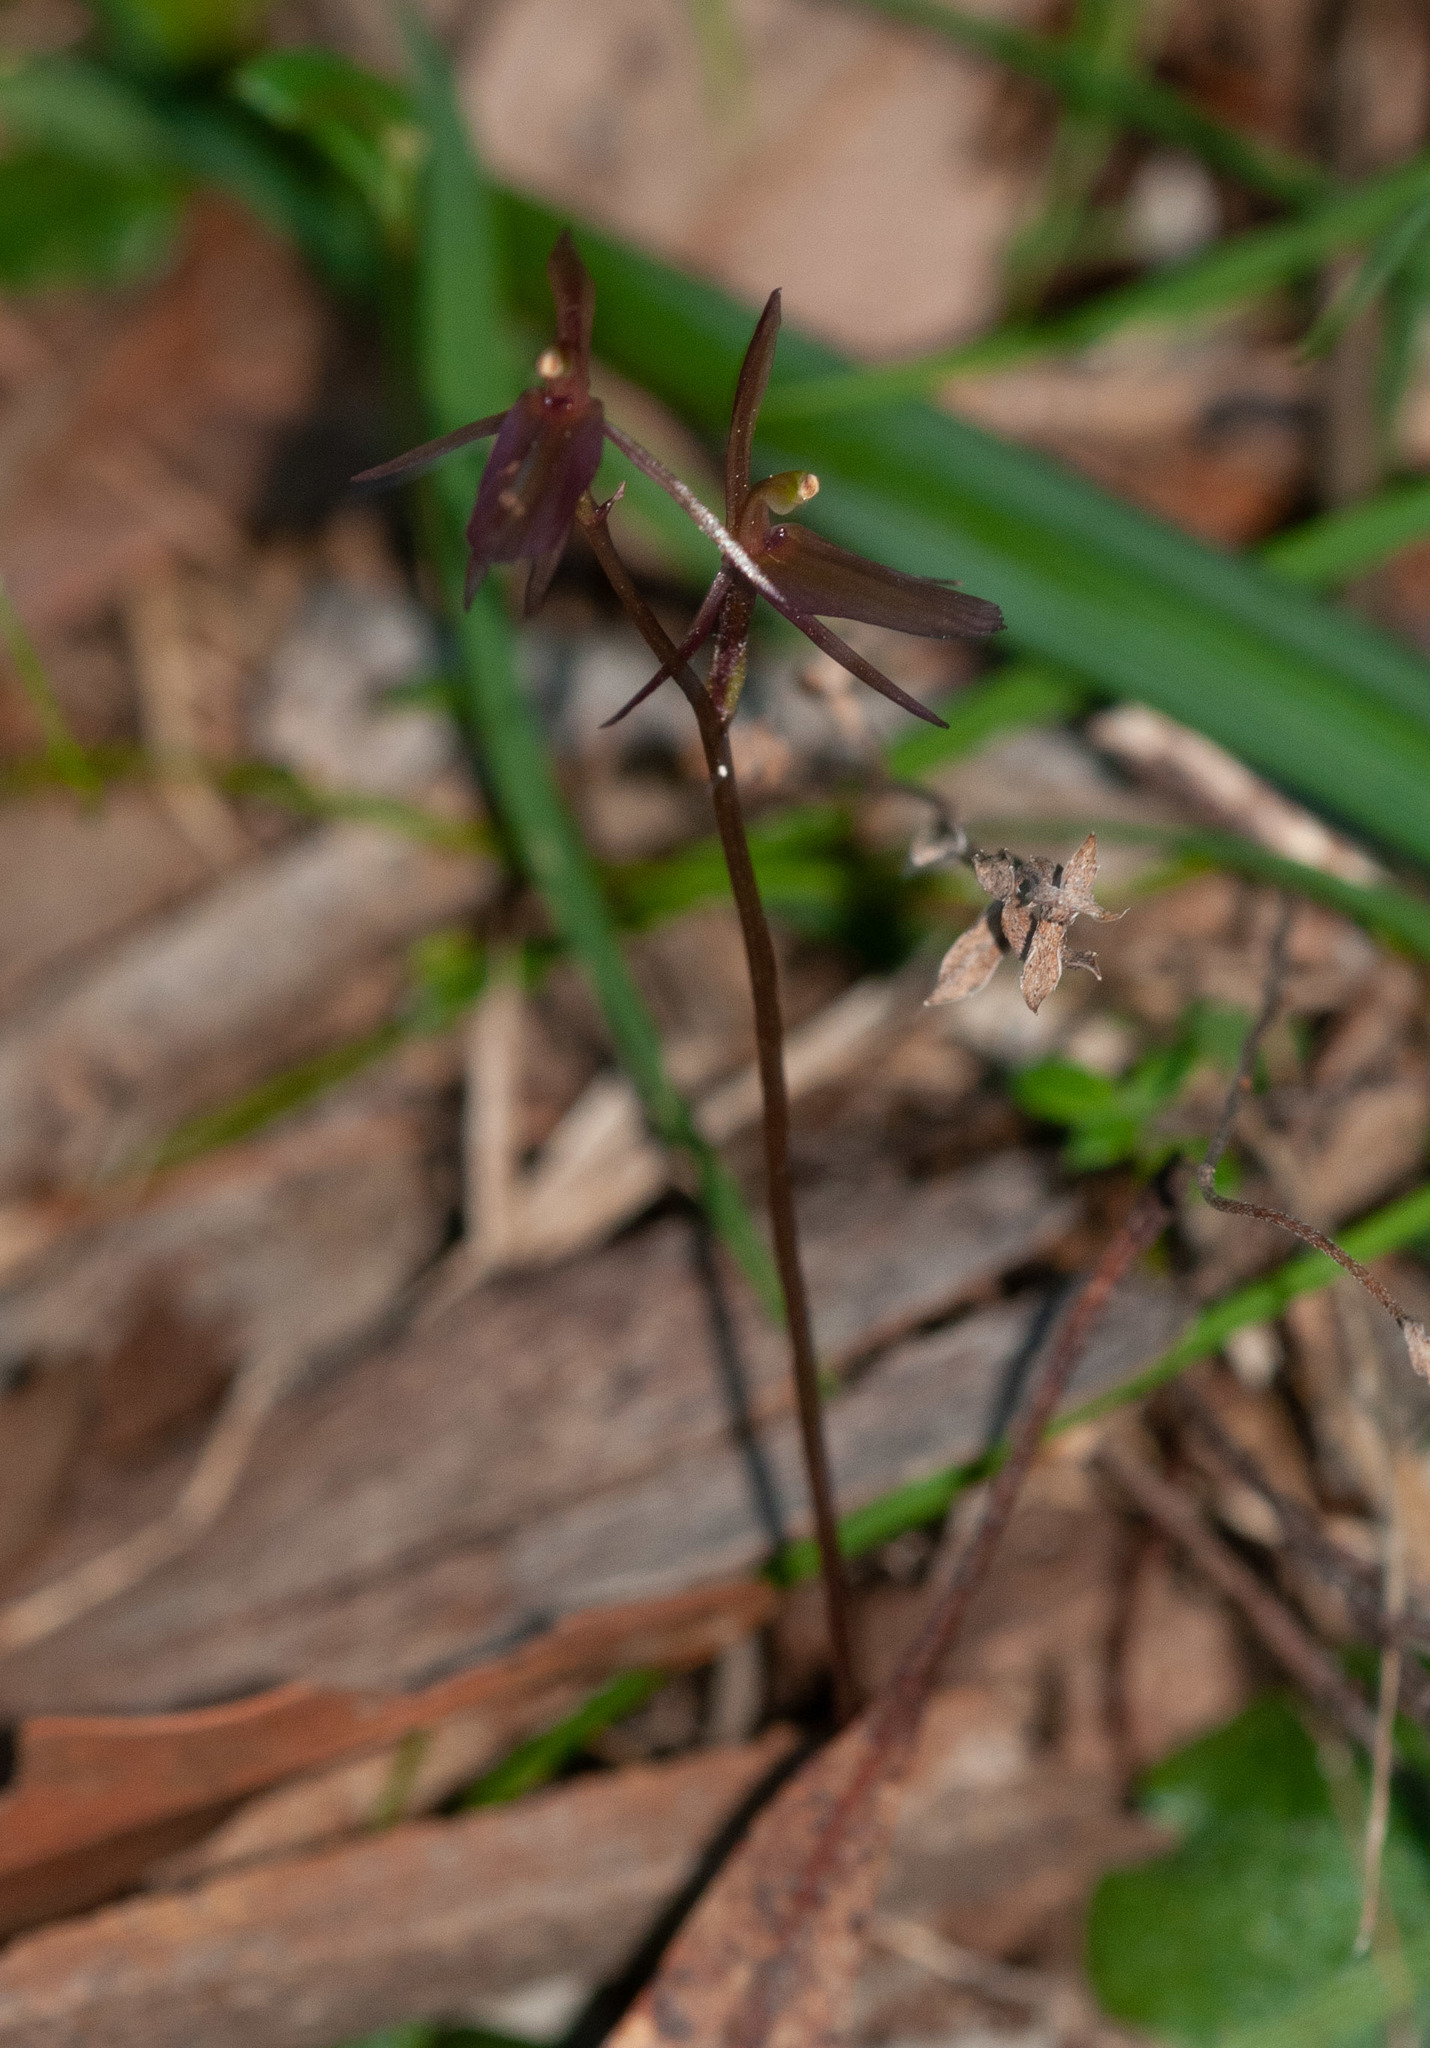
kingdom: Plantae
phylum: Tracheophyta
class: Liliopsida
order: Asparagales
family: Orchidaceae
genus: Cyrtostylis
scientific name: Cyrtostylis robusta
